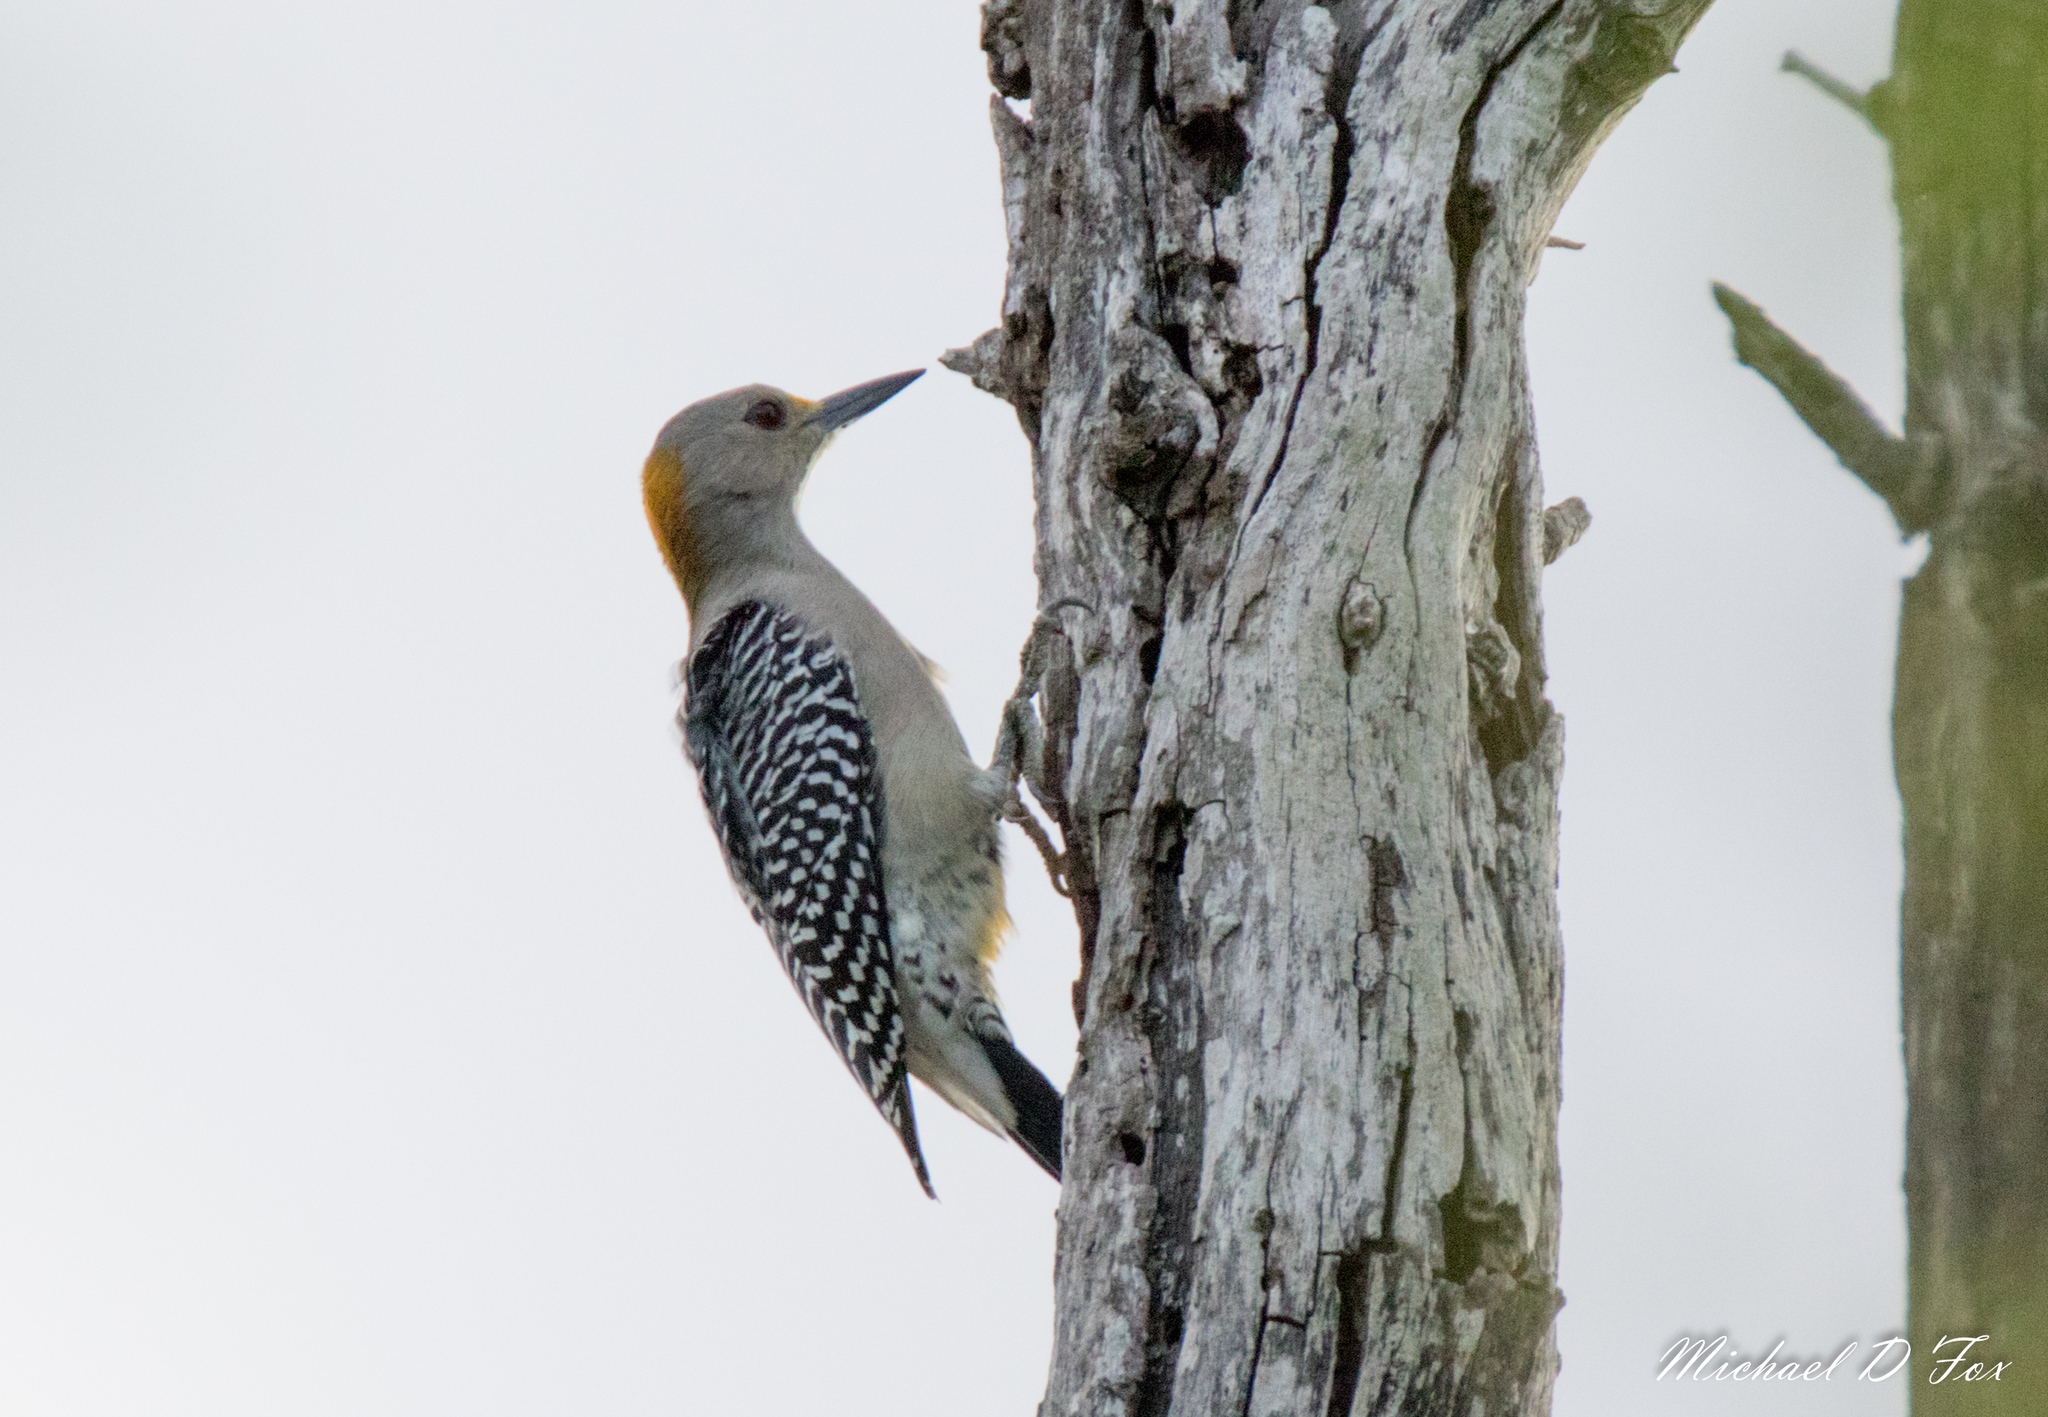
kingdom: Animalia
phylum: Chordata
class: Aves
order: Piciformes
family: Picidae
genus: Melanerpes
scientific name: Melanerpes aurifrons
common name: Golden-fronted woodpecker
